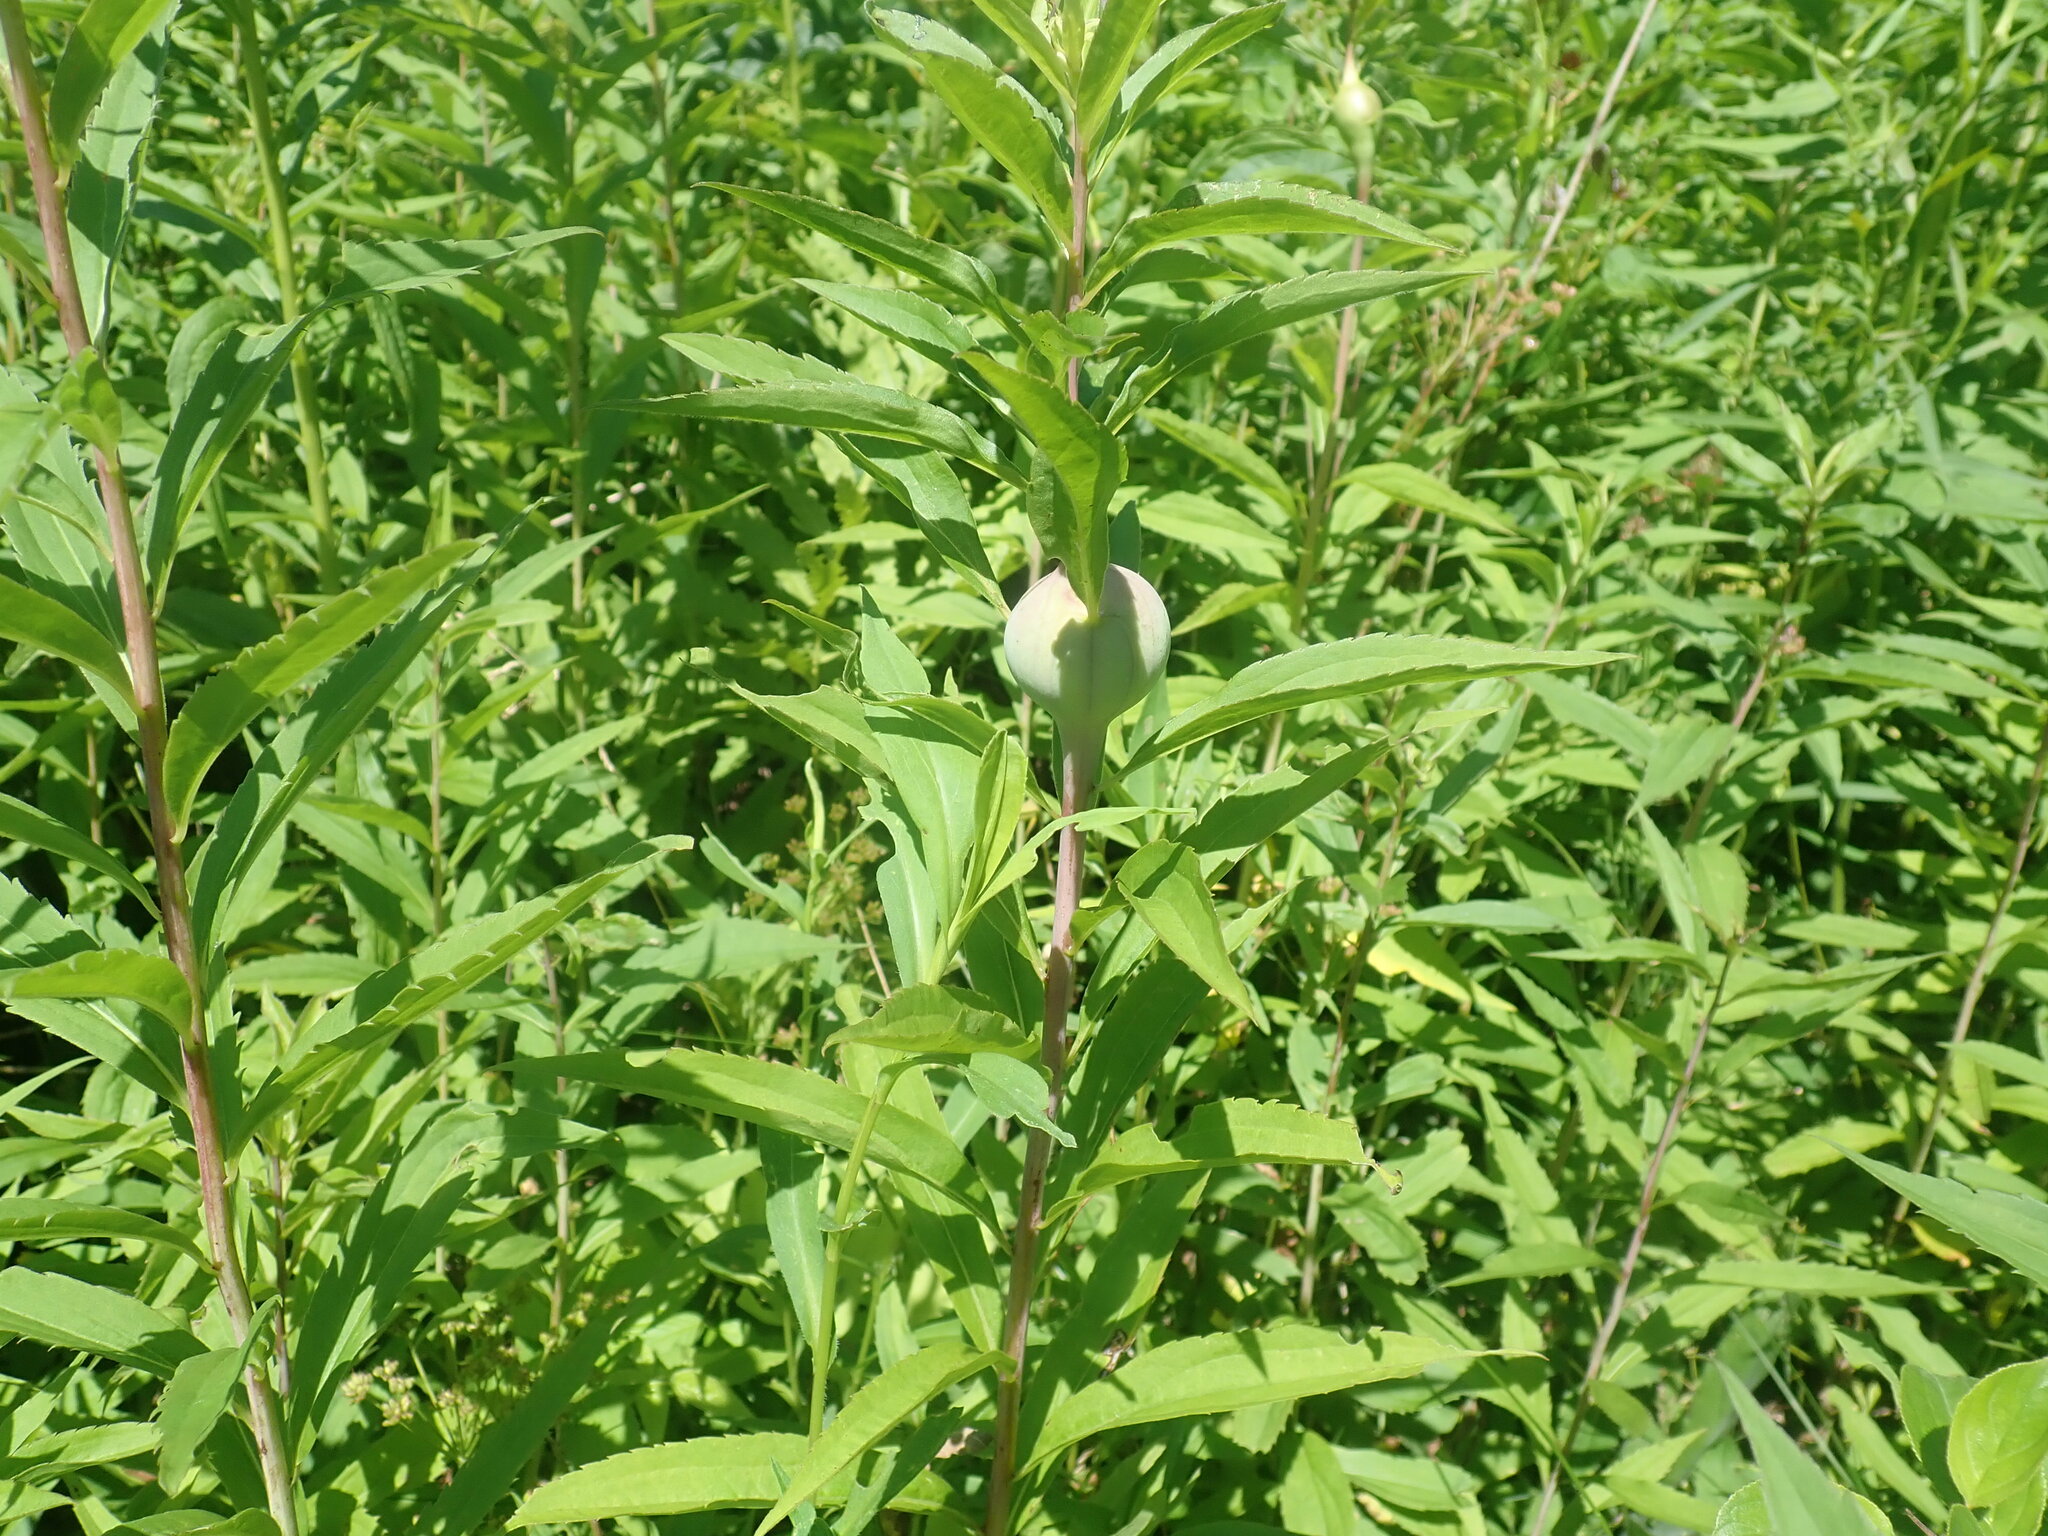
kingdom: Animalia
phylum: Arthropoda
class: Insecta
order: Diptera
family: Tephritidae
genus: Eurosta
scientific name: Eurosta solidaginis
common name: Goldenrod gall fly
